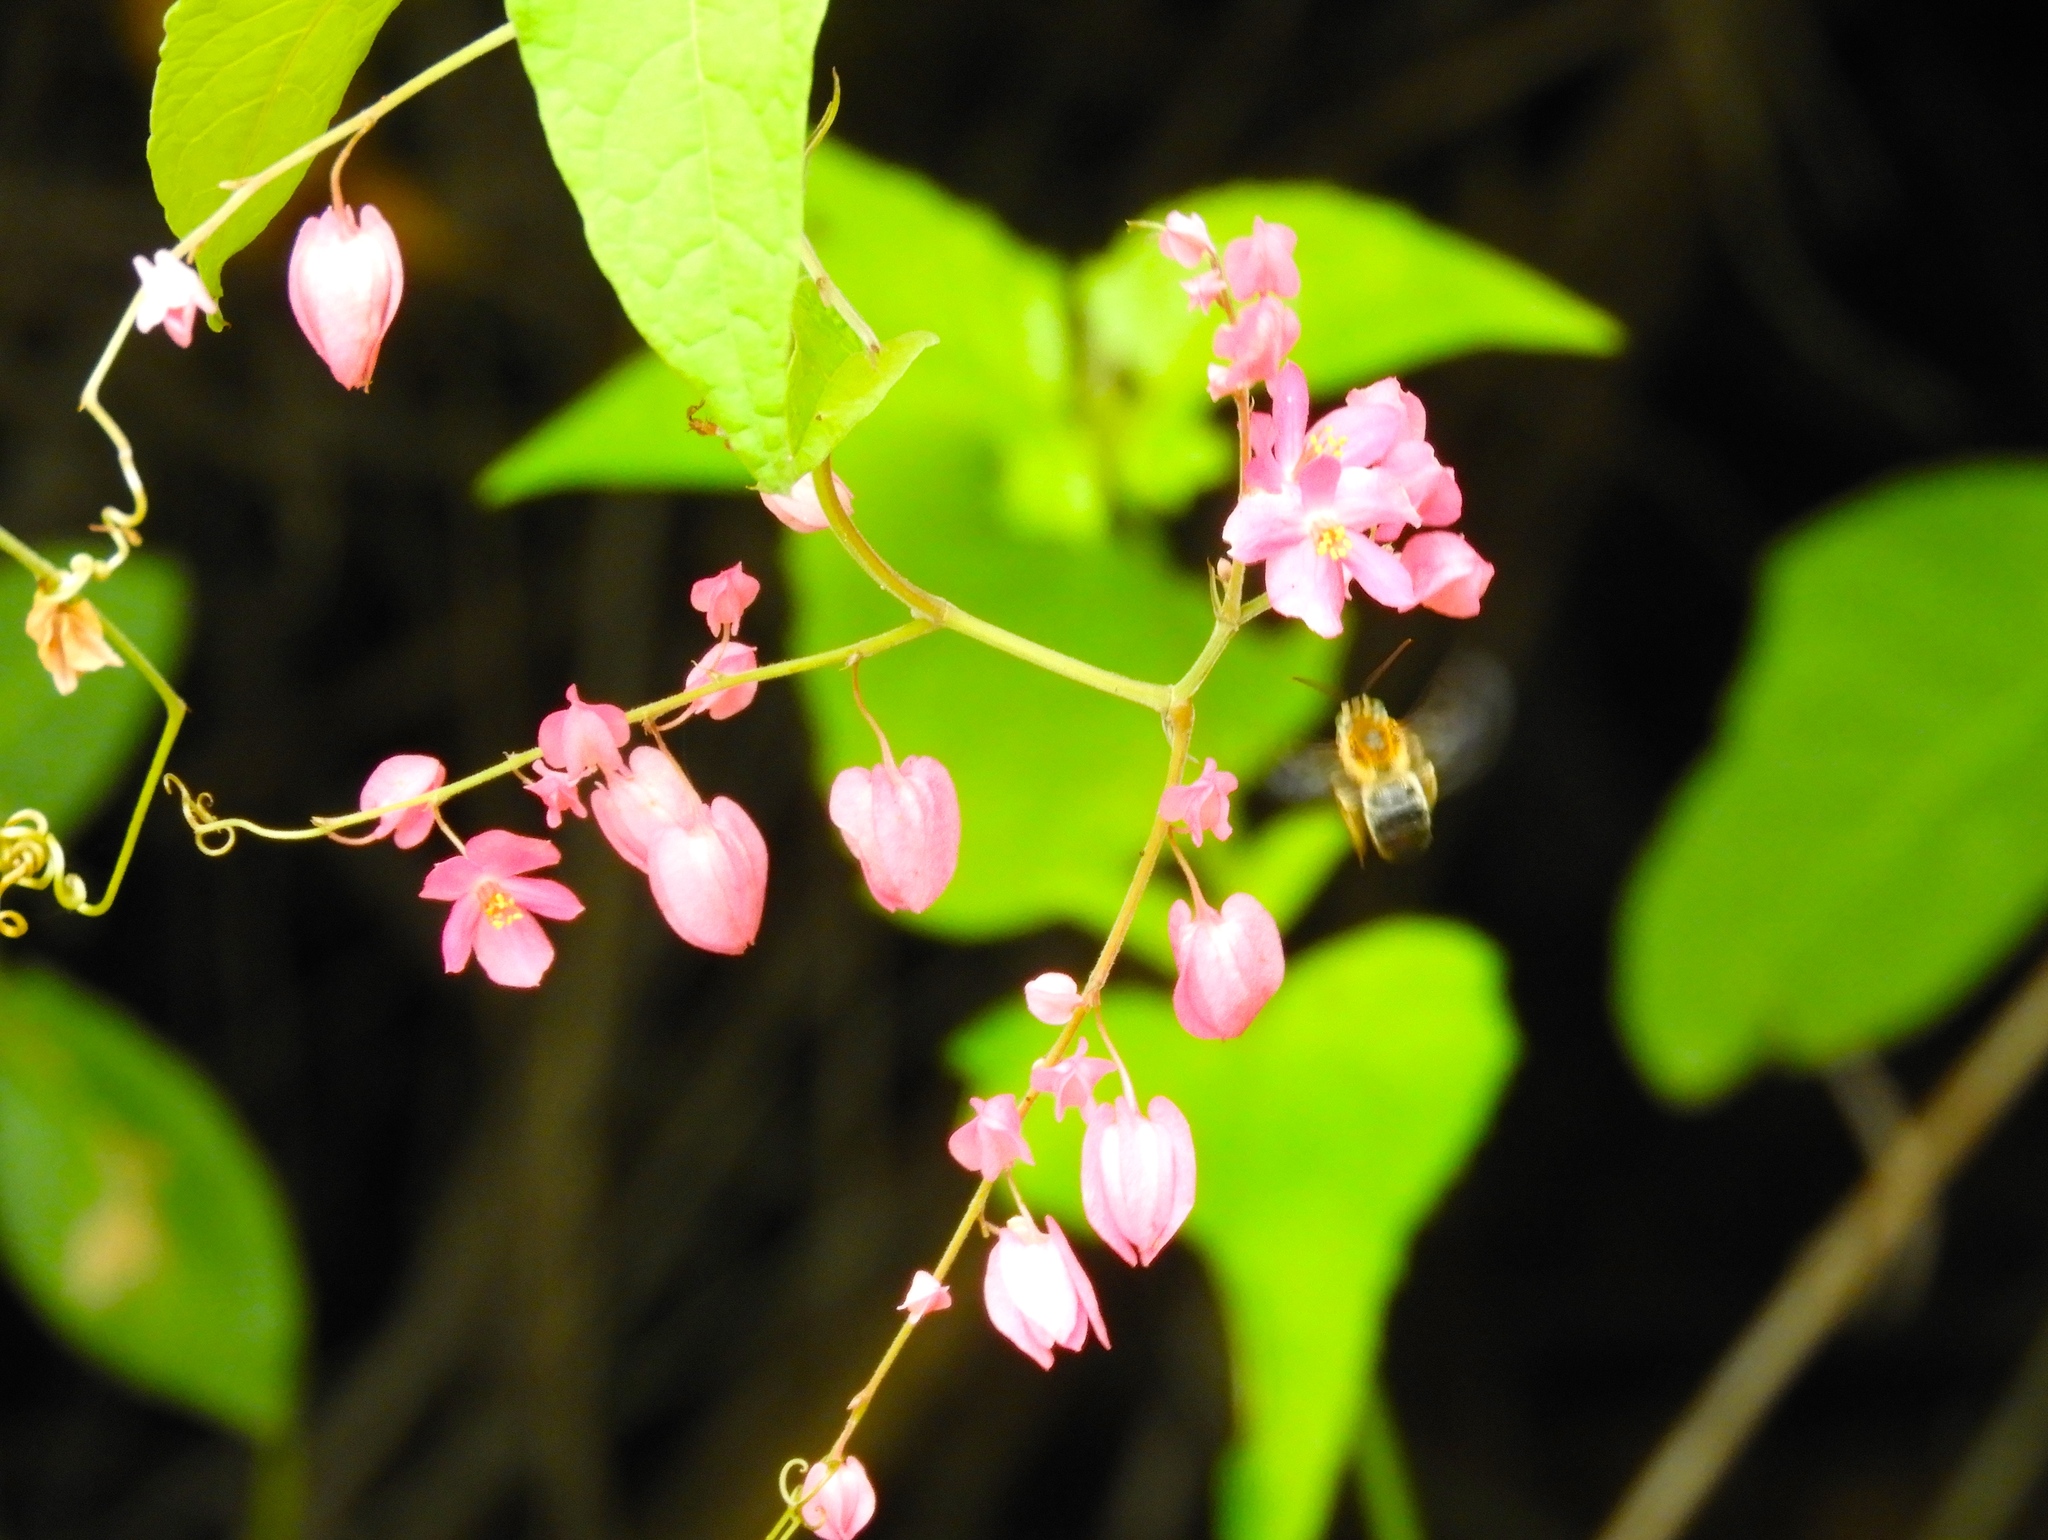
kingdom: Animalia
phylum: Arthropoda
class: Insecta
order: Hymenoptera
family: Apidae
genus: Apidae
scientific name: Apidae
